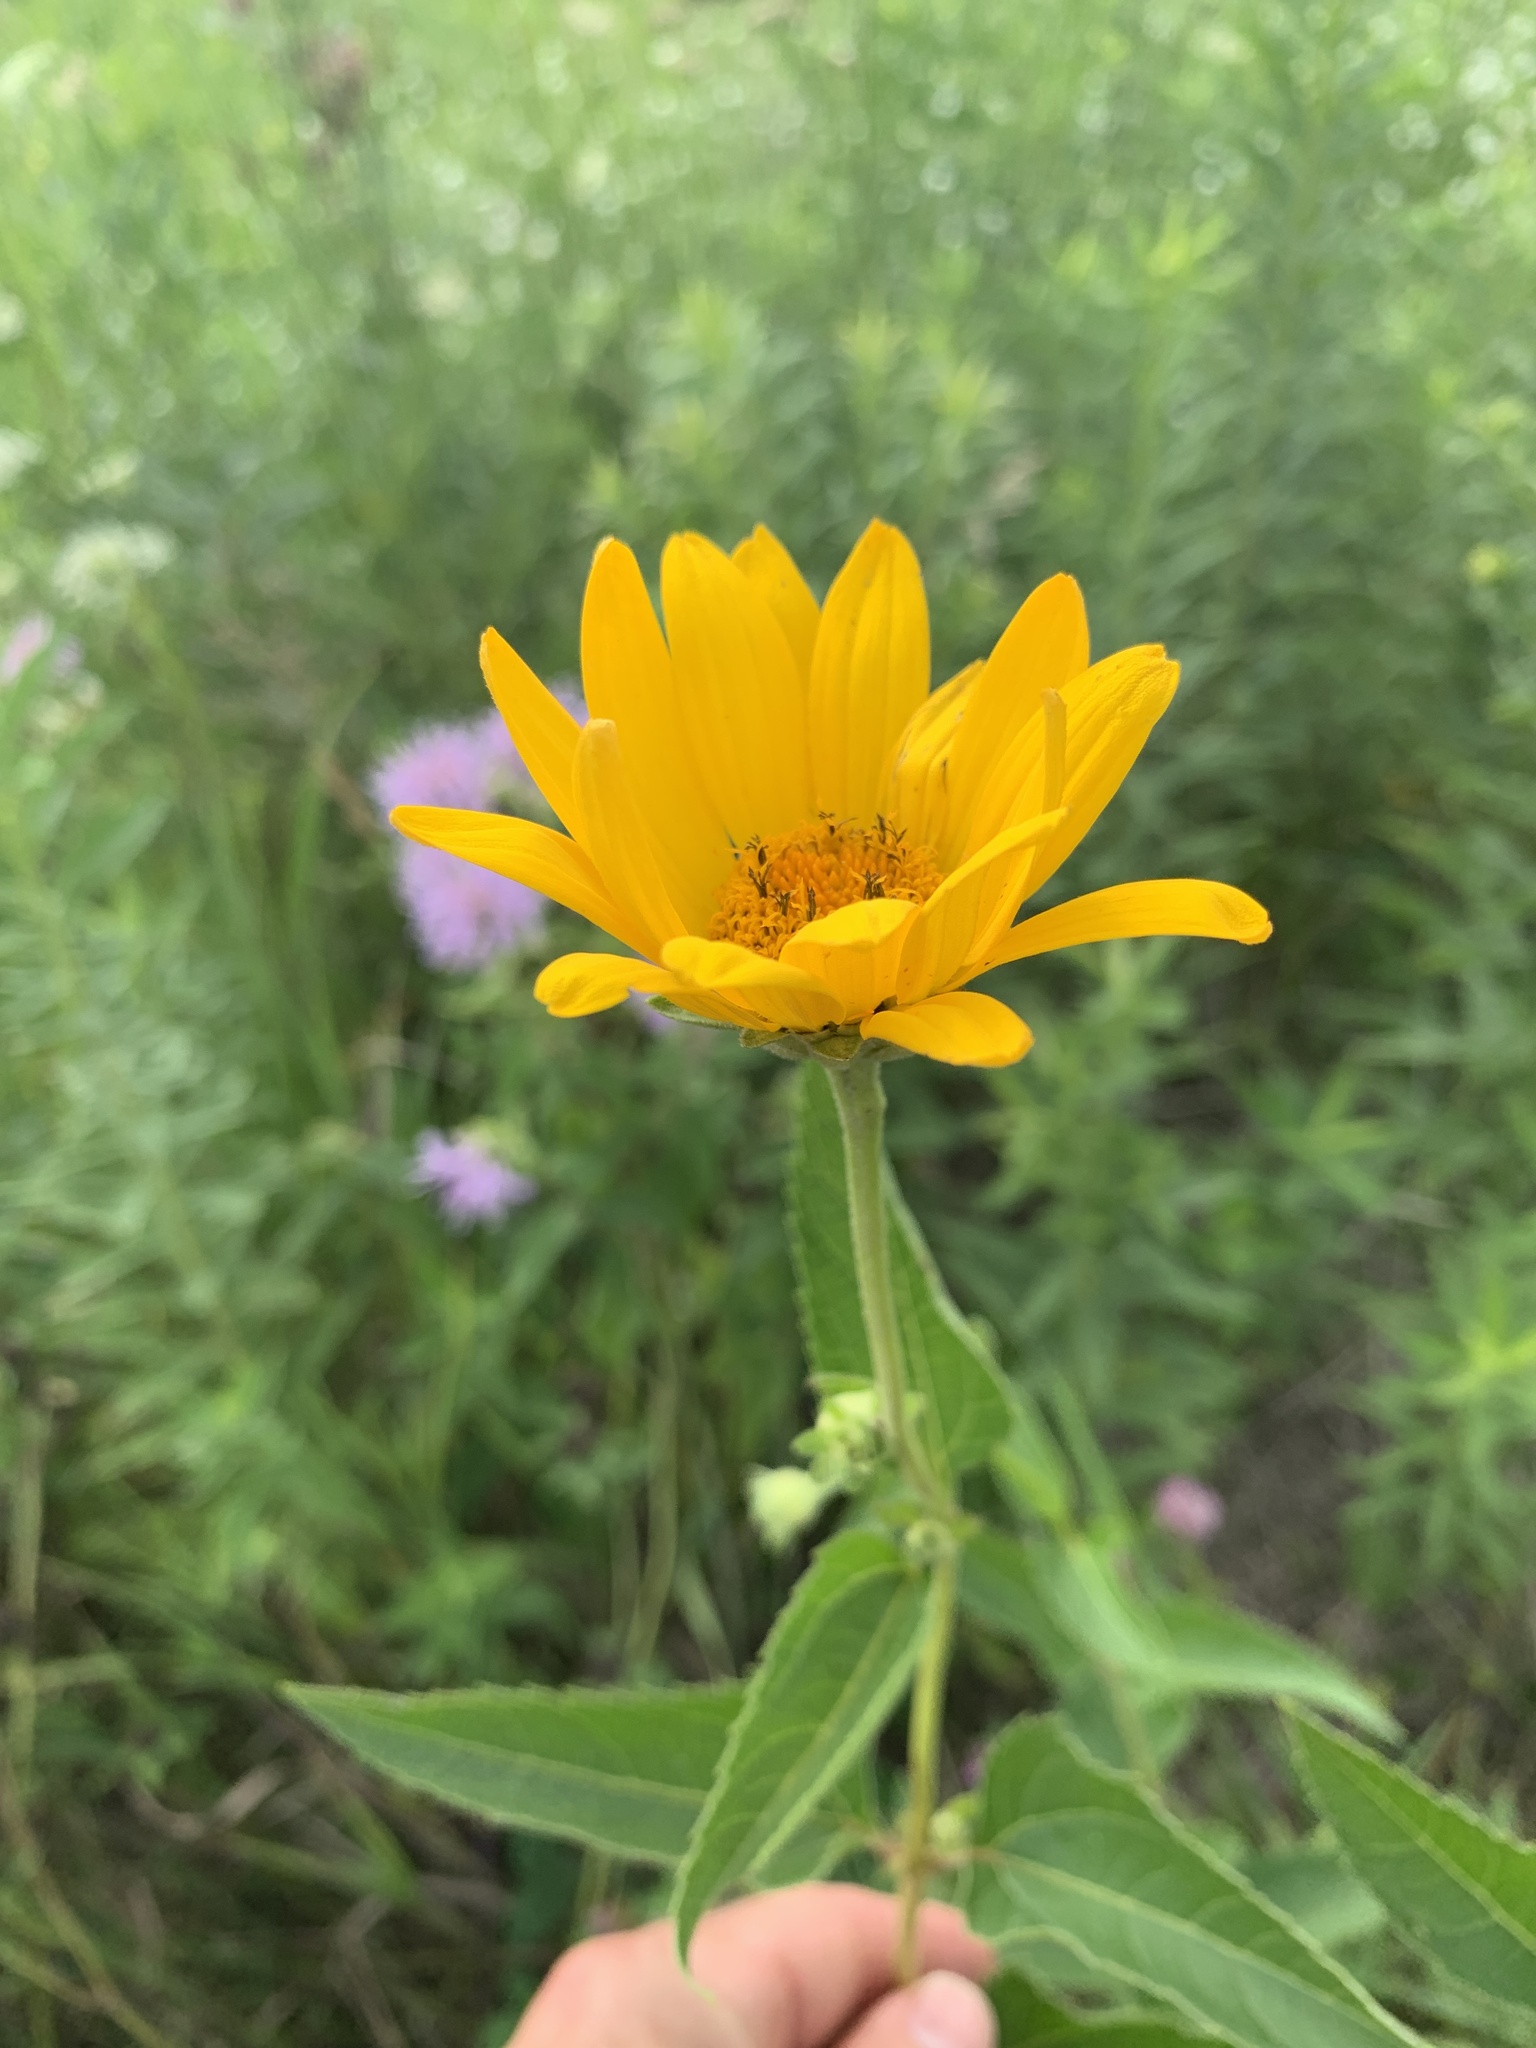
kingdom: Plantae
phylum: Tracheophyta
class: Magnoliopsida
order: Asterales
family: Asteraceae
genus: Heliopsis
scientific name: Heliopsis helianthoides
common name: False sunflower
